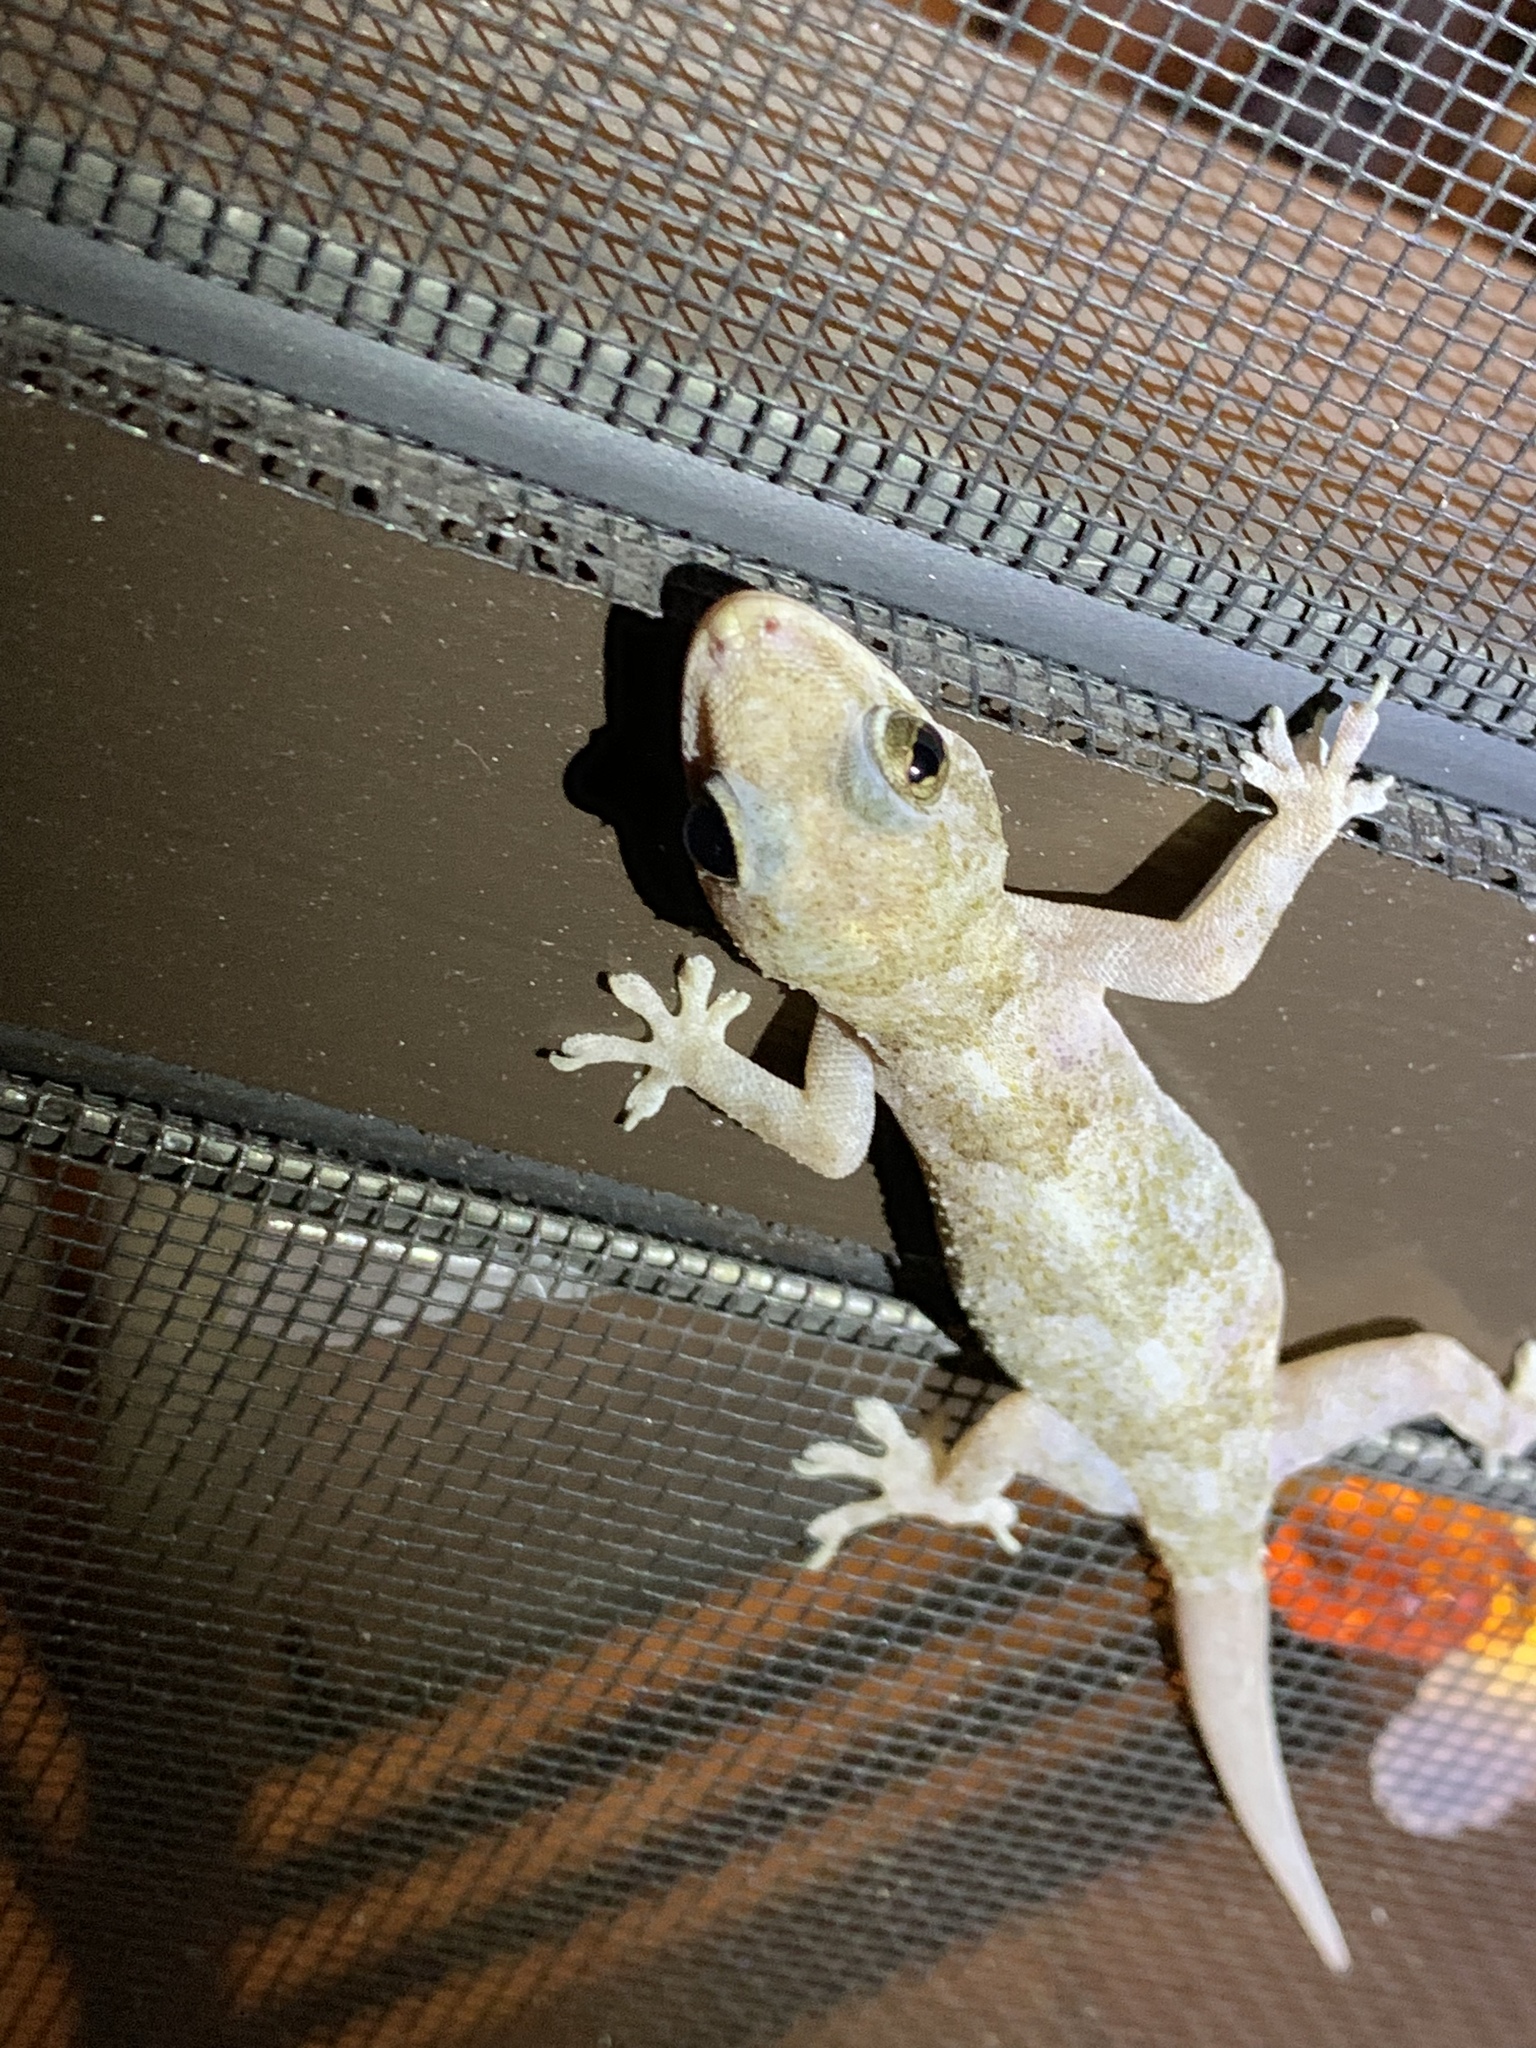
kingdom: Animalia
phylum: Chordata
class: Squamata
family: Gekkonidae
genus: Hemidactylus
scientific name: Hemidactylus mabouia
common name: House gecko
